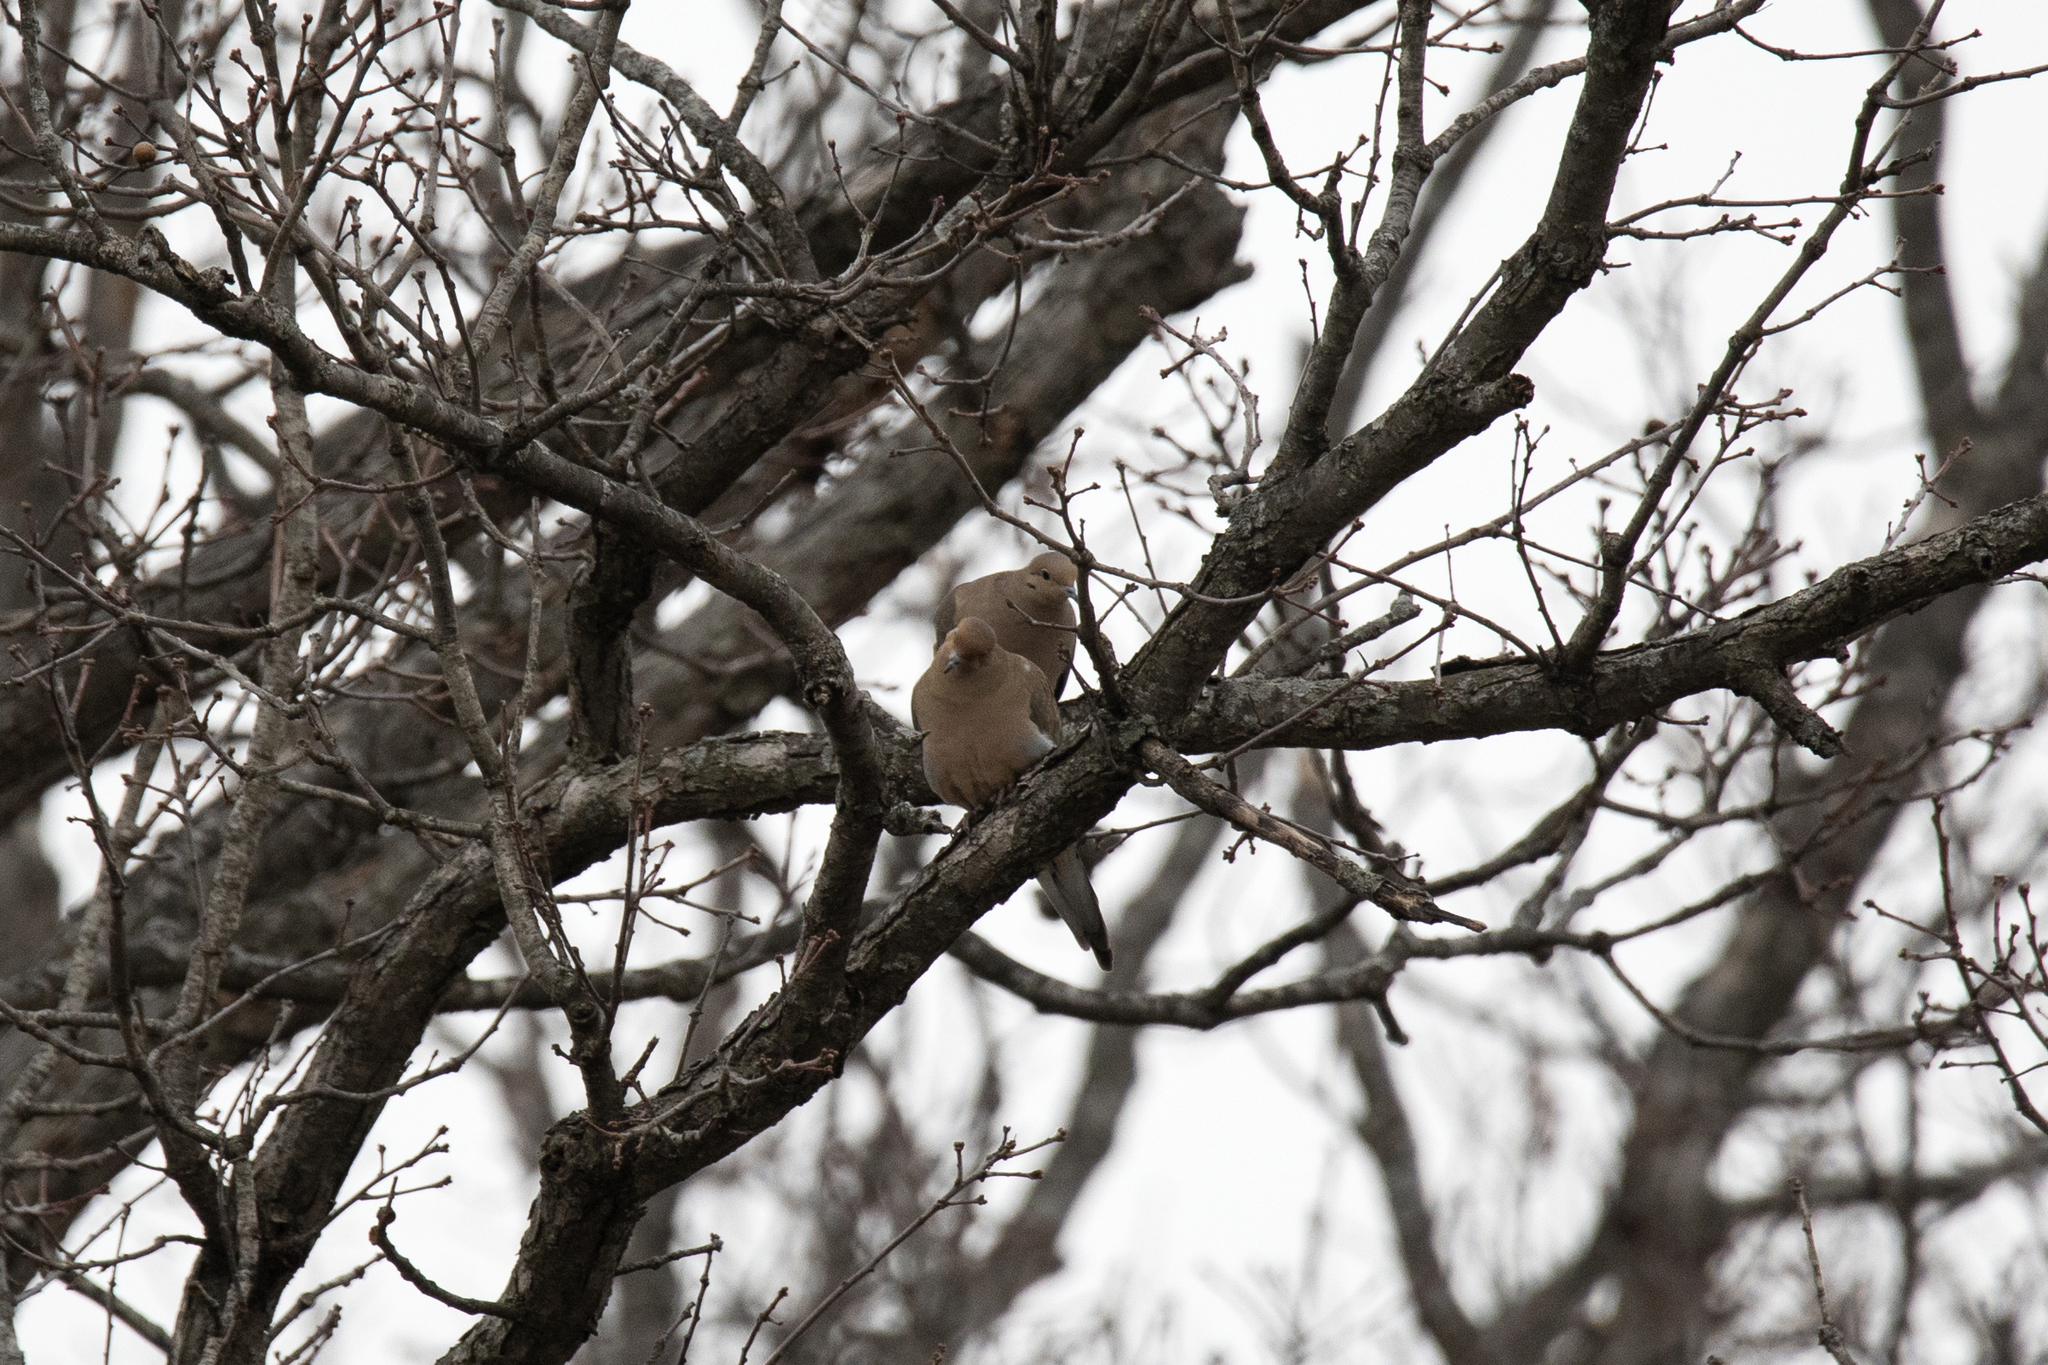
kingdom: Animalia
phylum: Chordata
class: Aves
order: Columbiformes
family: Columbidae
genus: Zenaida
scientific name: Zenaida macroura
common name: Mourning dove
